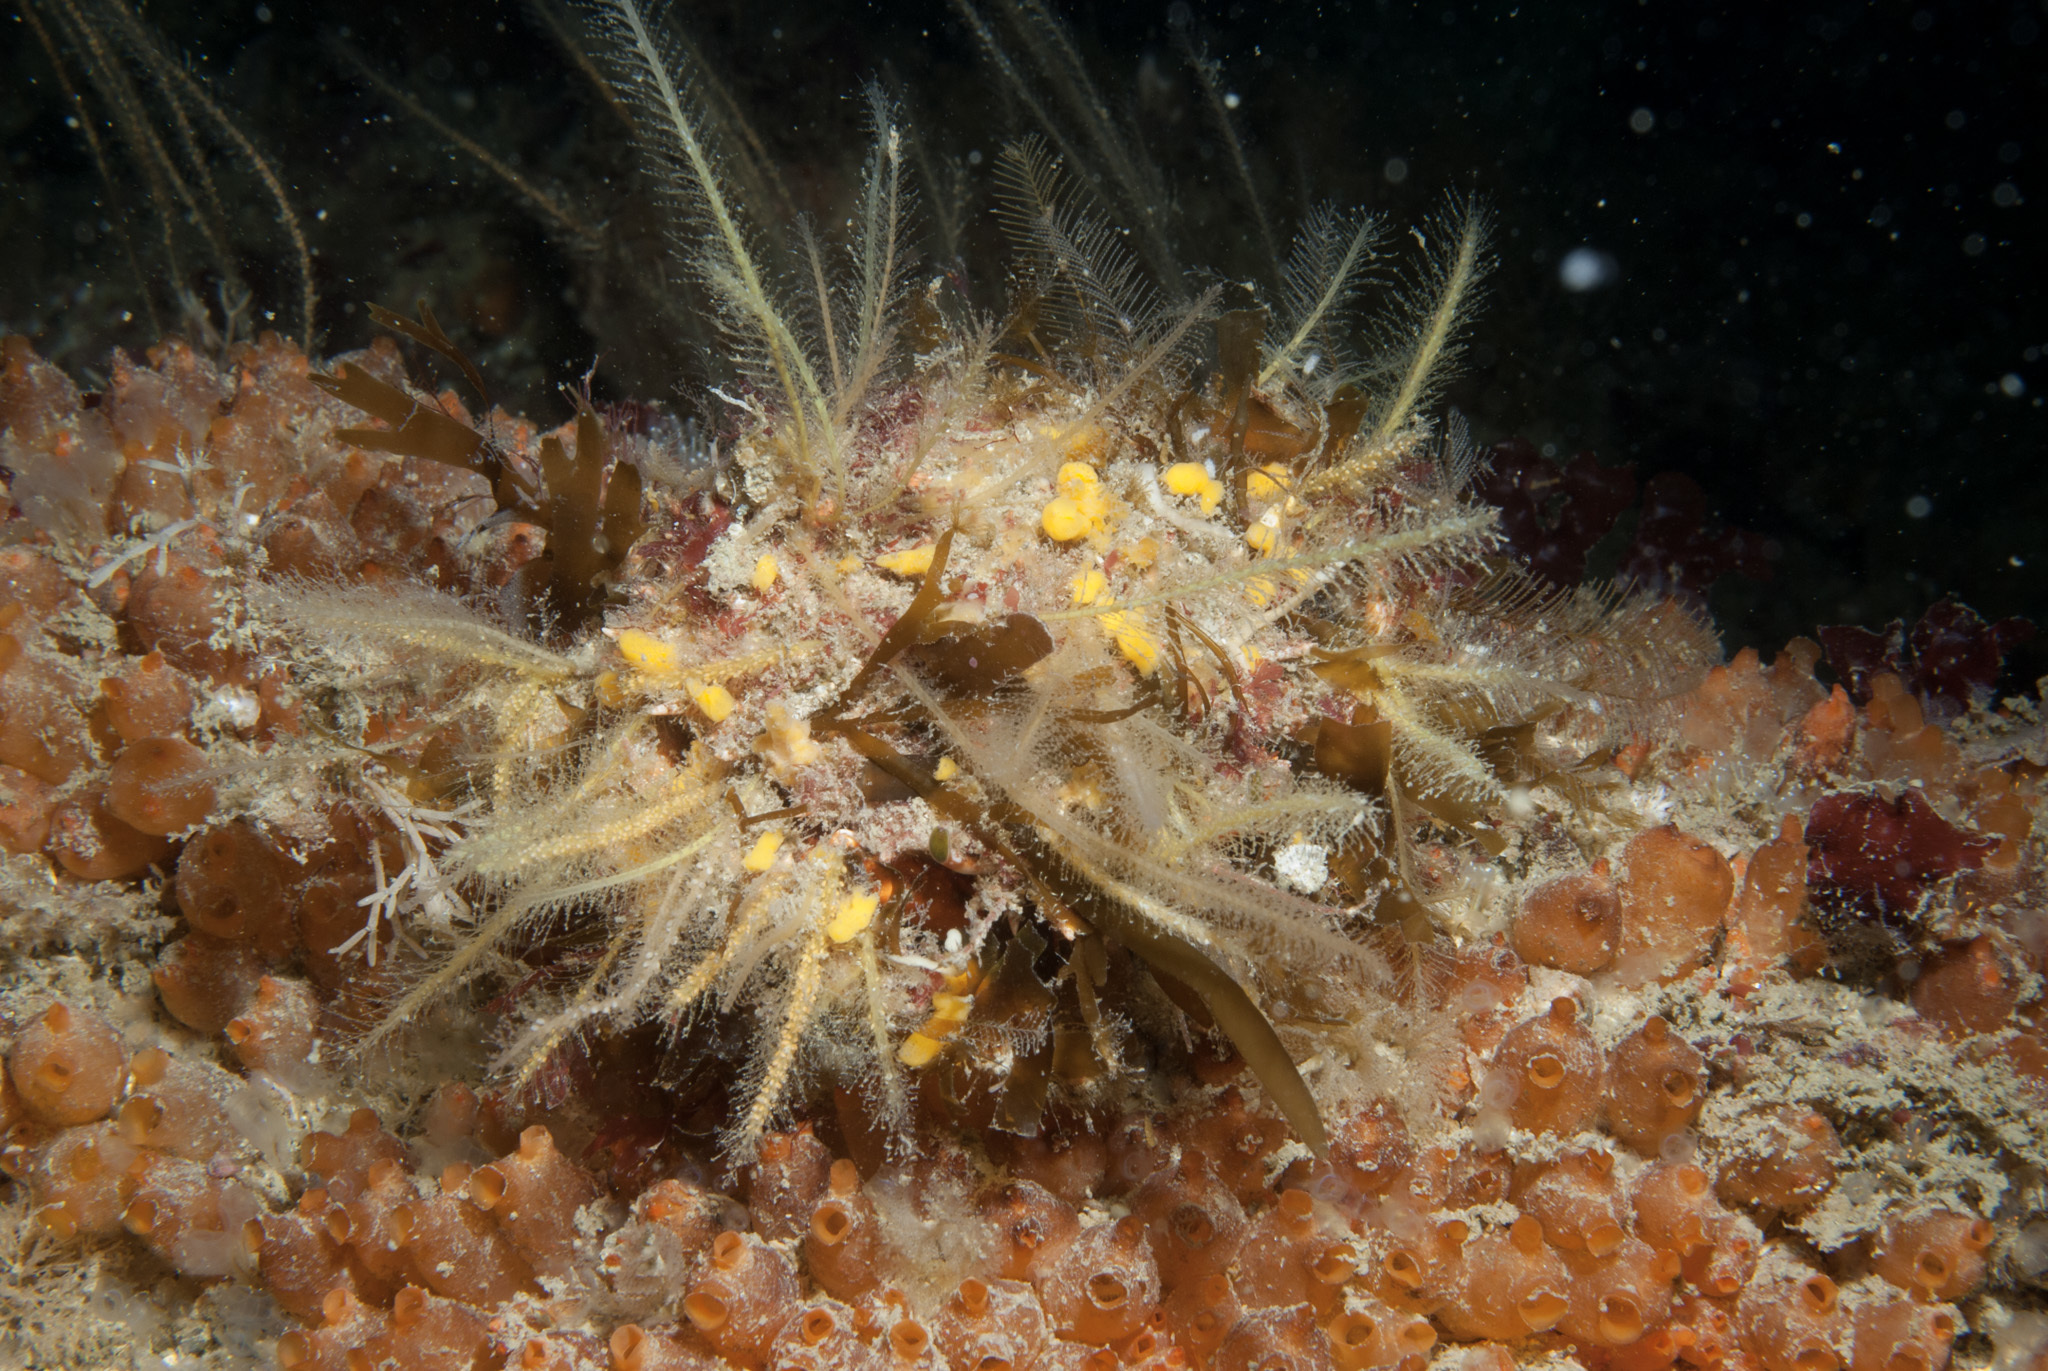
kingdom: Animalia
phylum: Arthropoda
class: Malacostraca
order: Decapoda
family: Majidae
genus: Maja
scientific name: Maja brachydactyla
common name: Common spider crab
